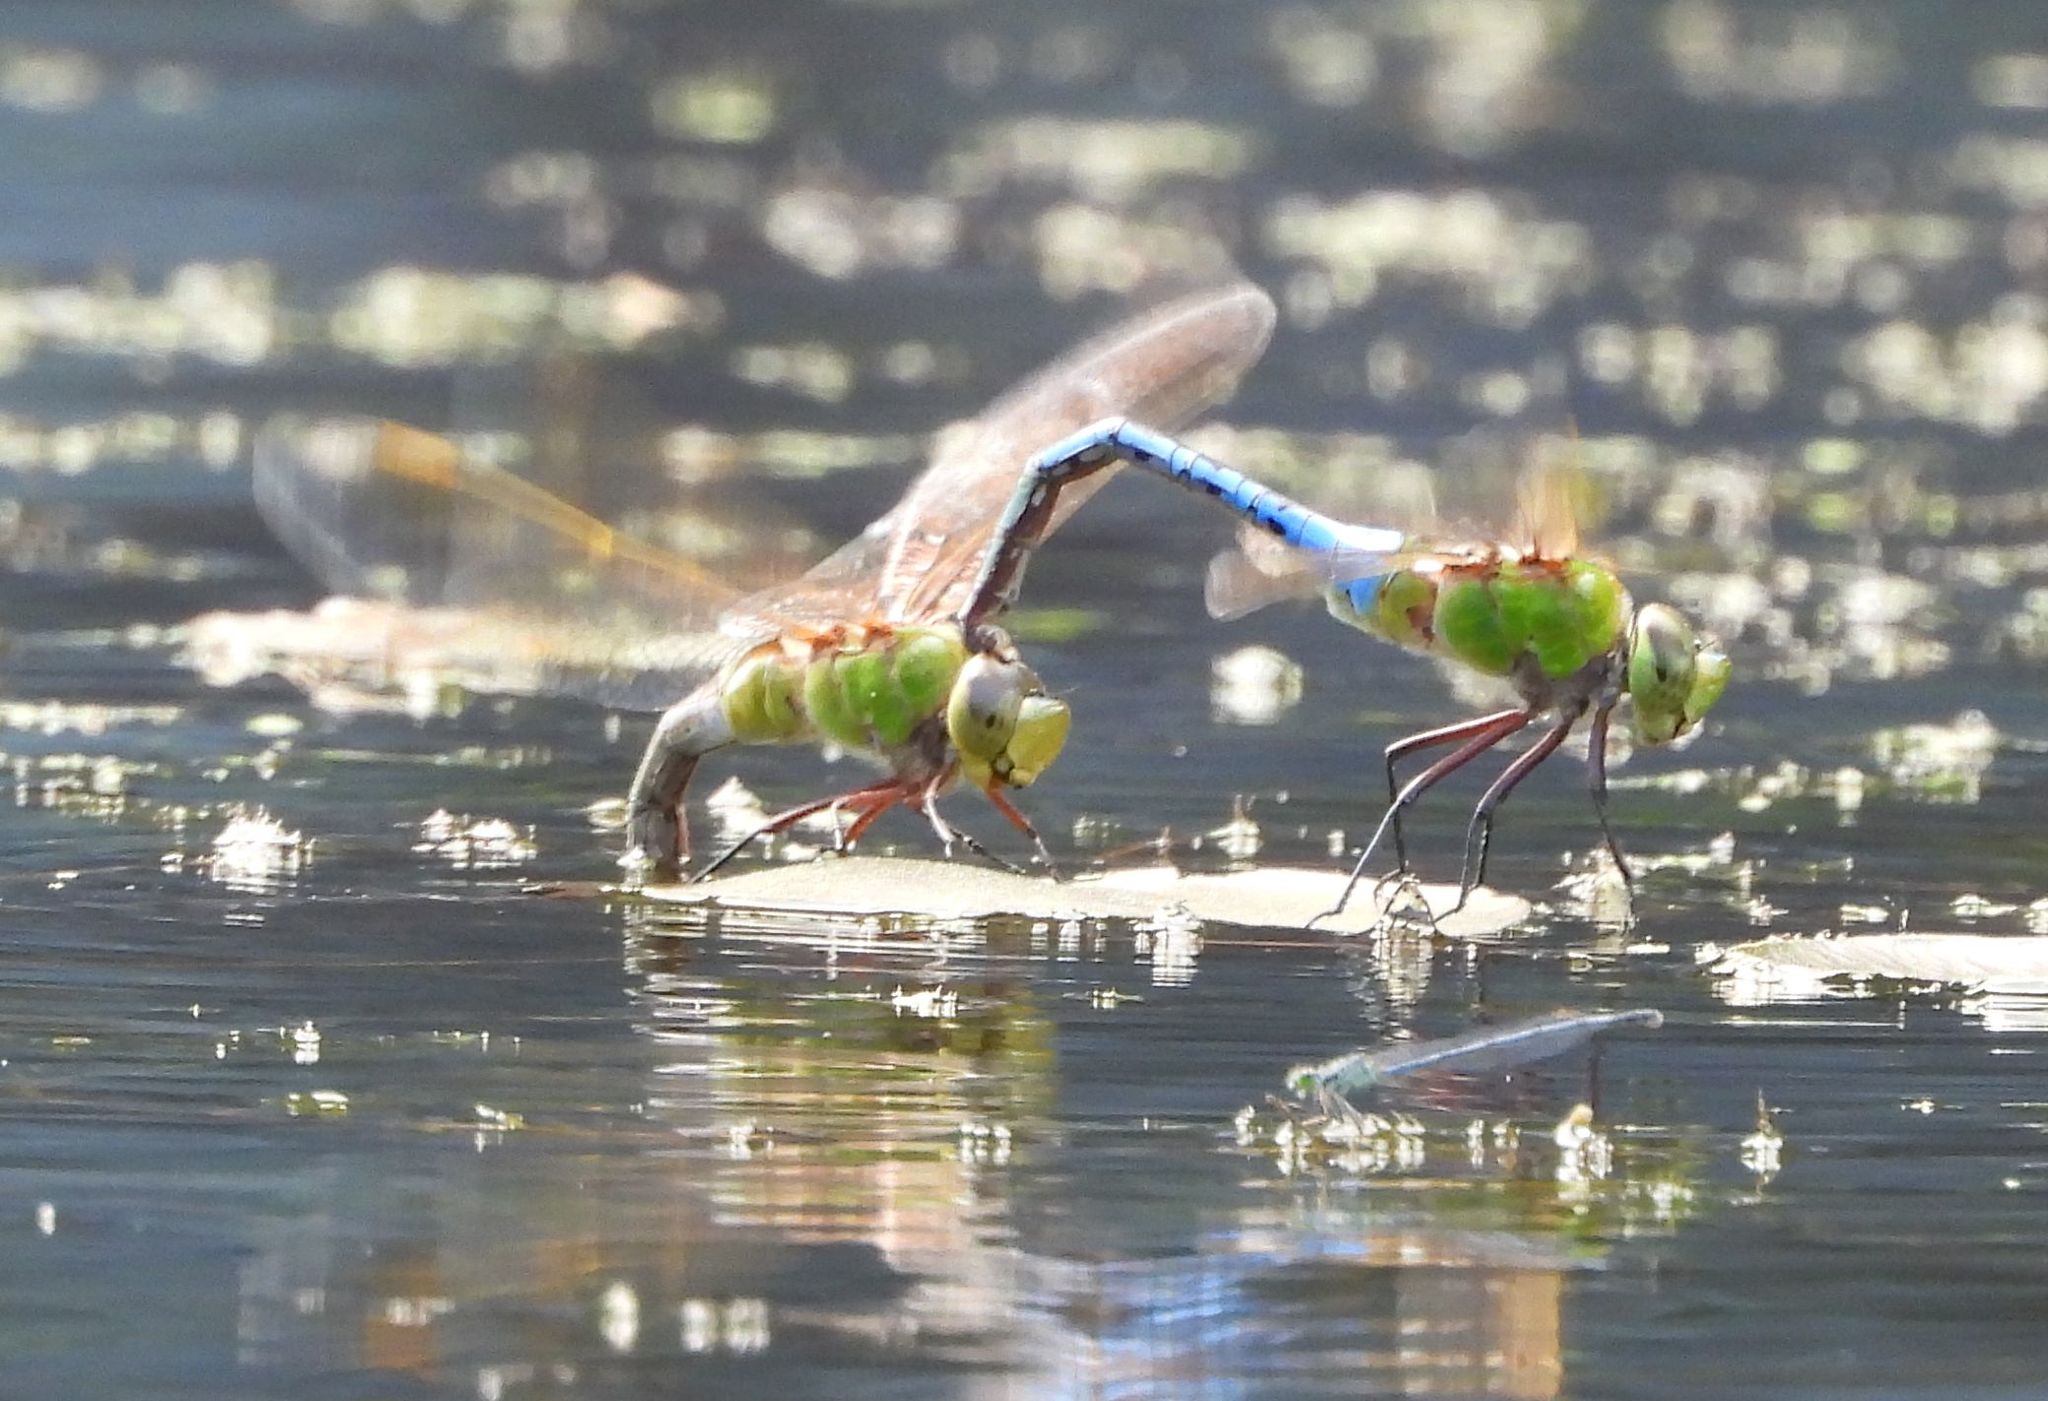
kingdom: Animalia
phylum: Arthropoda
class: Insecta
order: Odonata
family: Aeshnidae
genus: Anax
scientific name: Anax junius
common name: Common green darner
